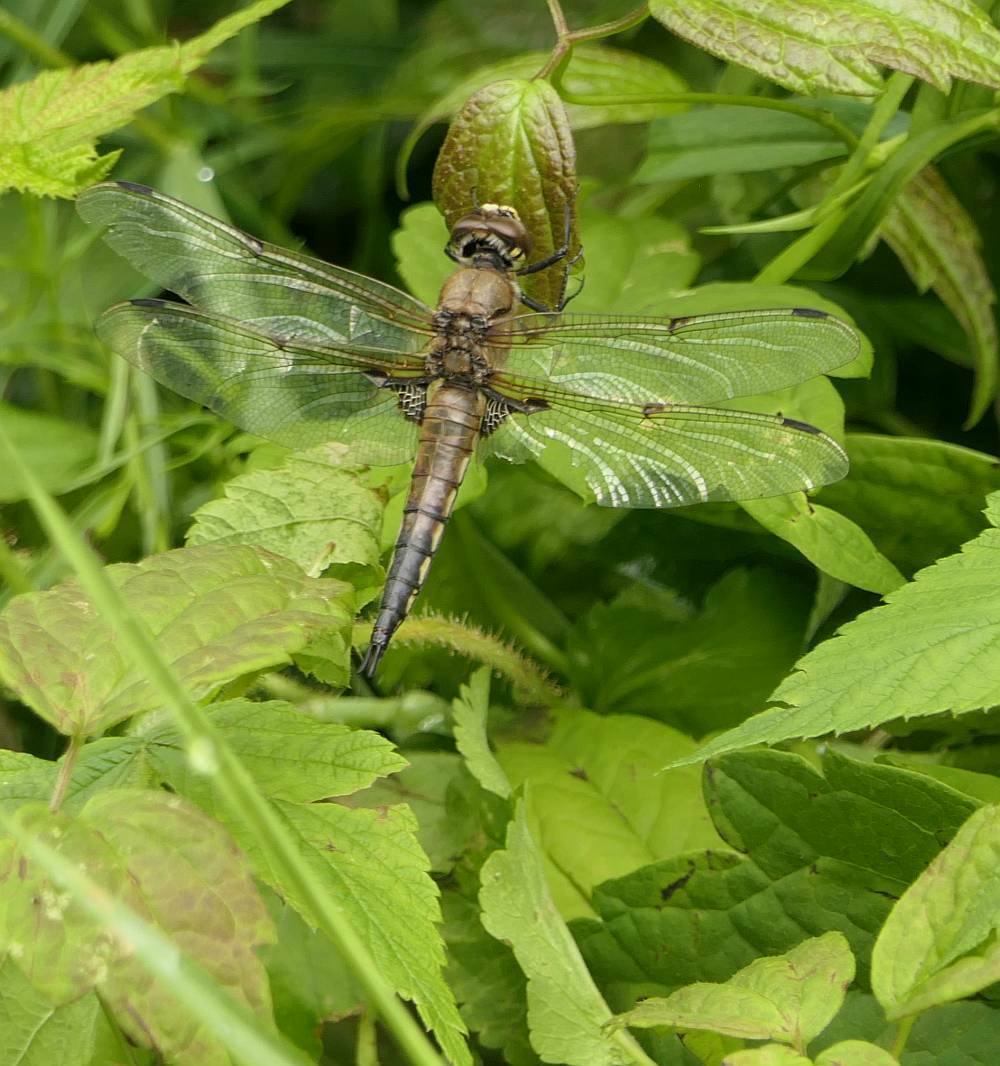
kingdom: Animalia
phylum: Arthropoda
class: Insecta
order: Odonata
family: Libellulidae
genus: Libellula
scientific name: Libellula quadrimaculata
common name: Four-spotted chaser
